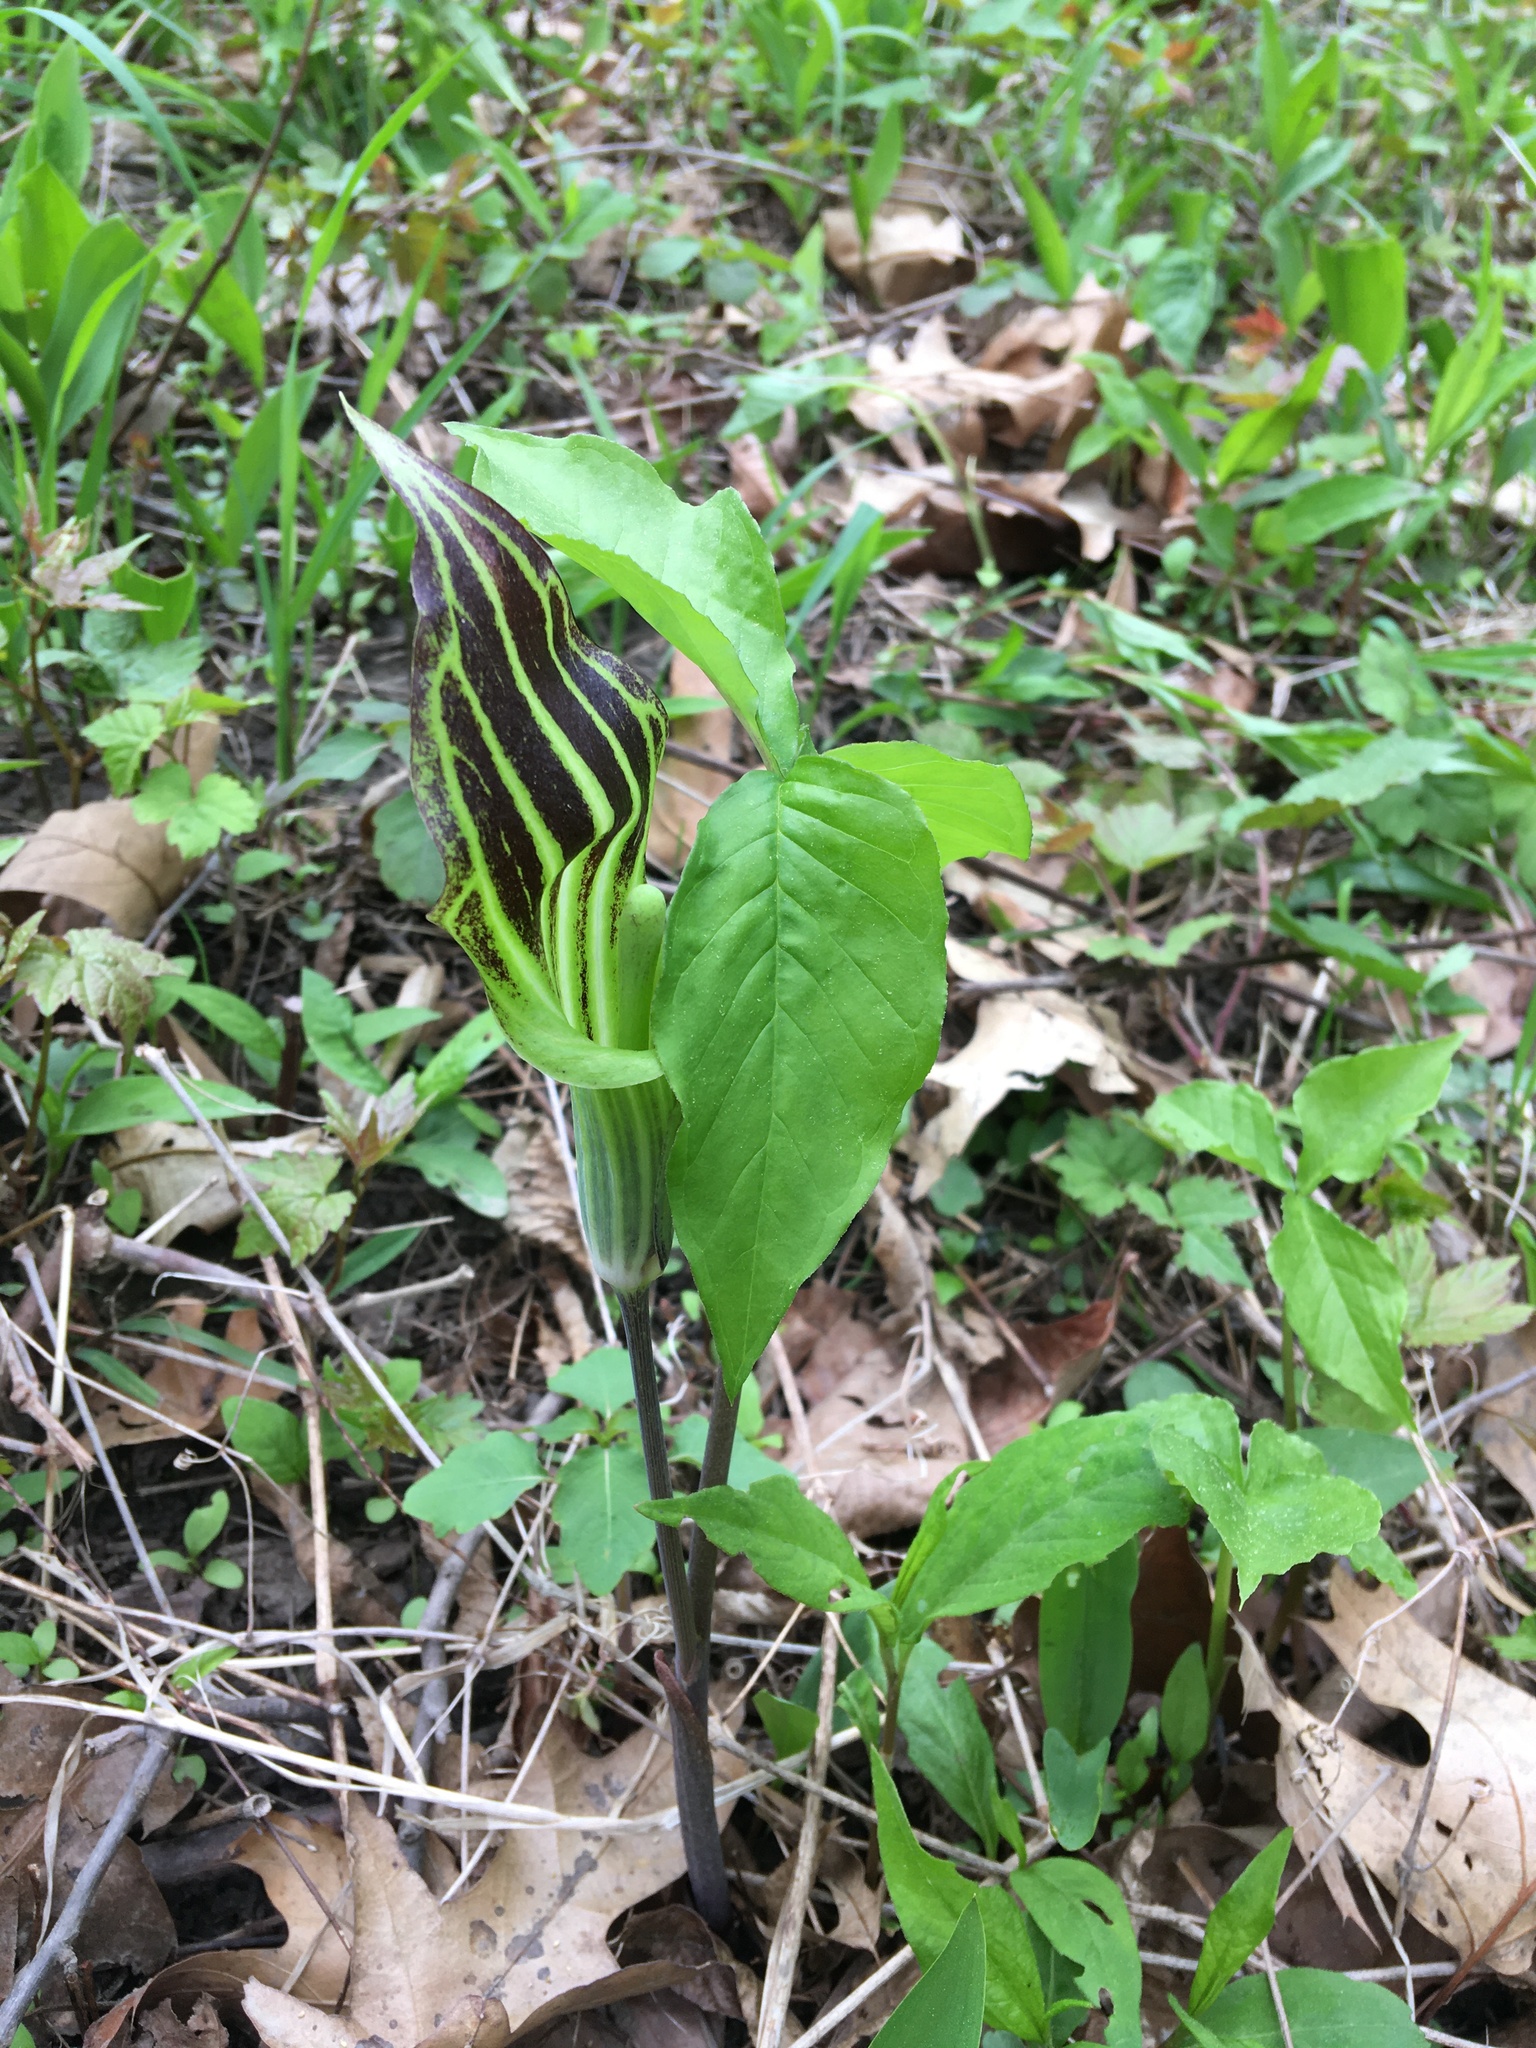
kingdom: Plantae
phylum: Tracheophyta
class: Liliopsida
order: Alismatales
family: Araceae
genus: Arisaema
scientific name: Arisaema triphyllum
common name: Jack-in-the-pulpit
